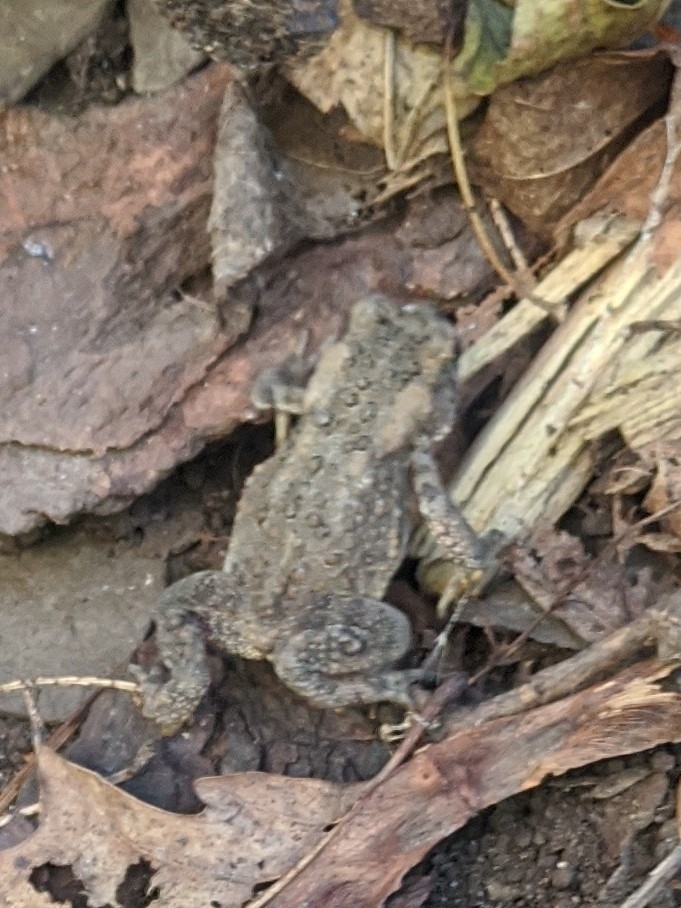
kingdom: Animalia
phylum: Chordata
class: Amphibia
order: Anura
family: Bufonidae
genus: Anaxyrus
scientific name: Anaxyrus americanus
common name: American toad
